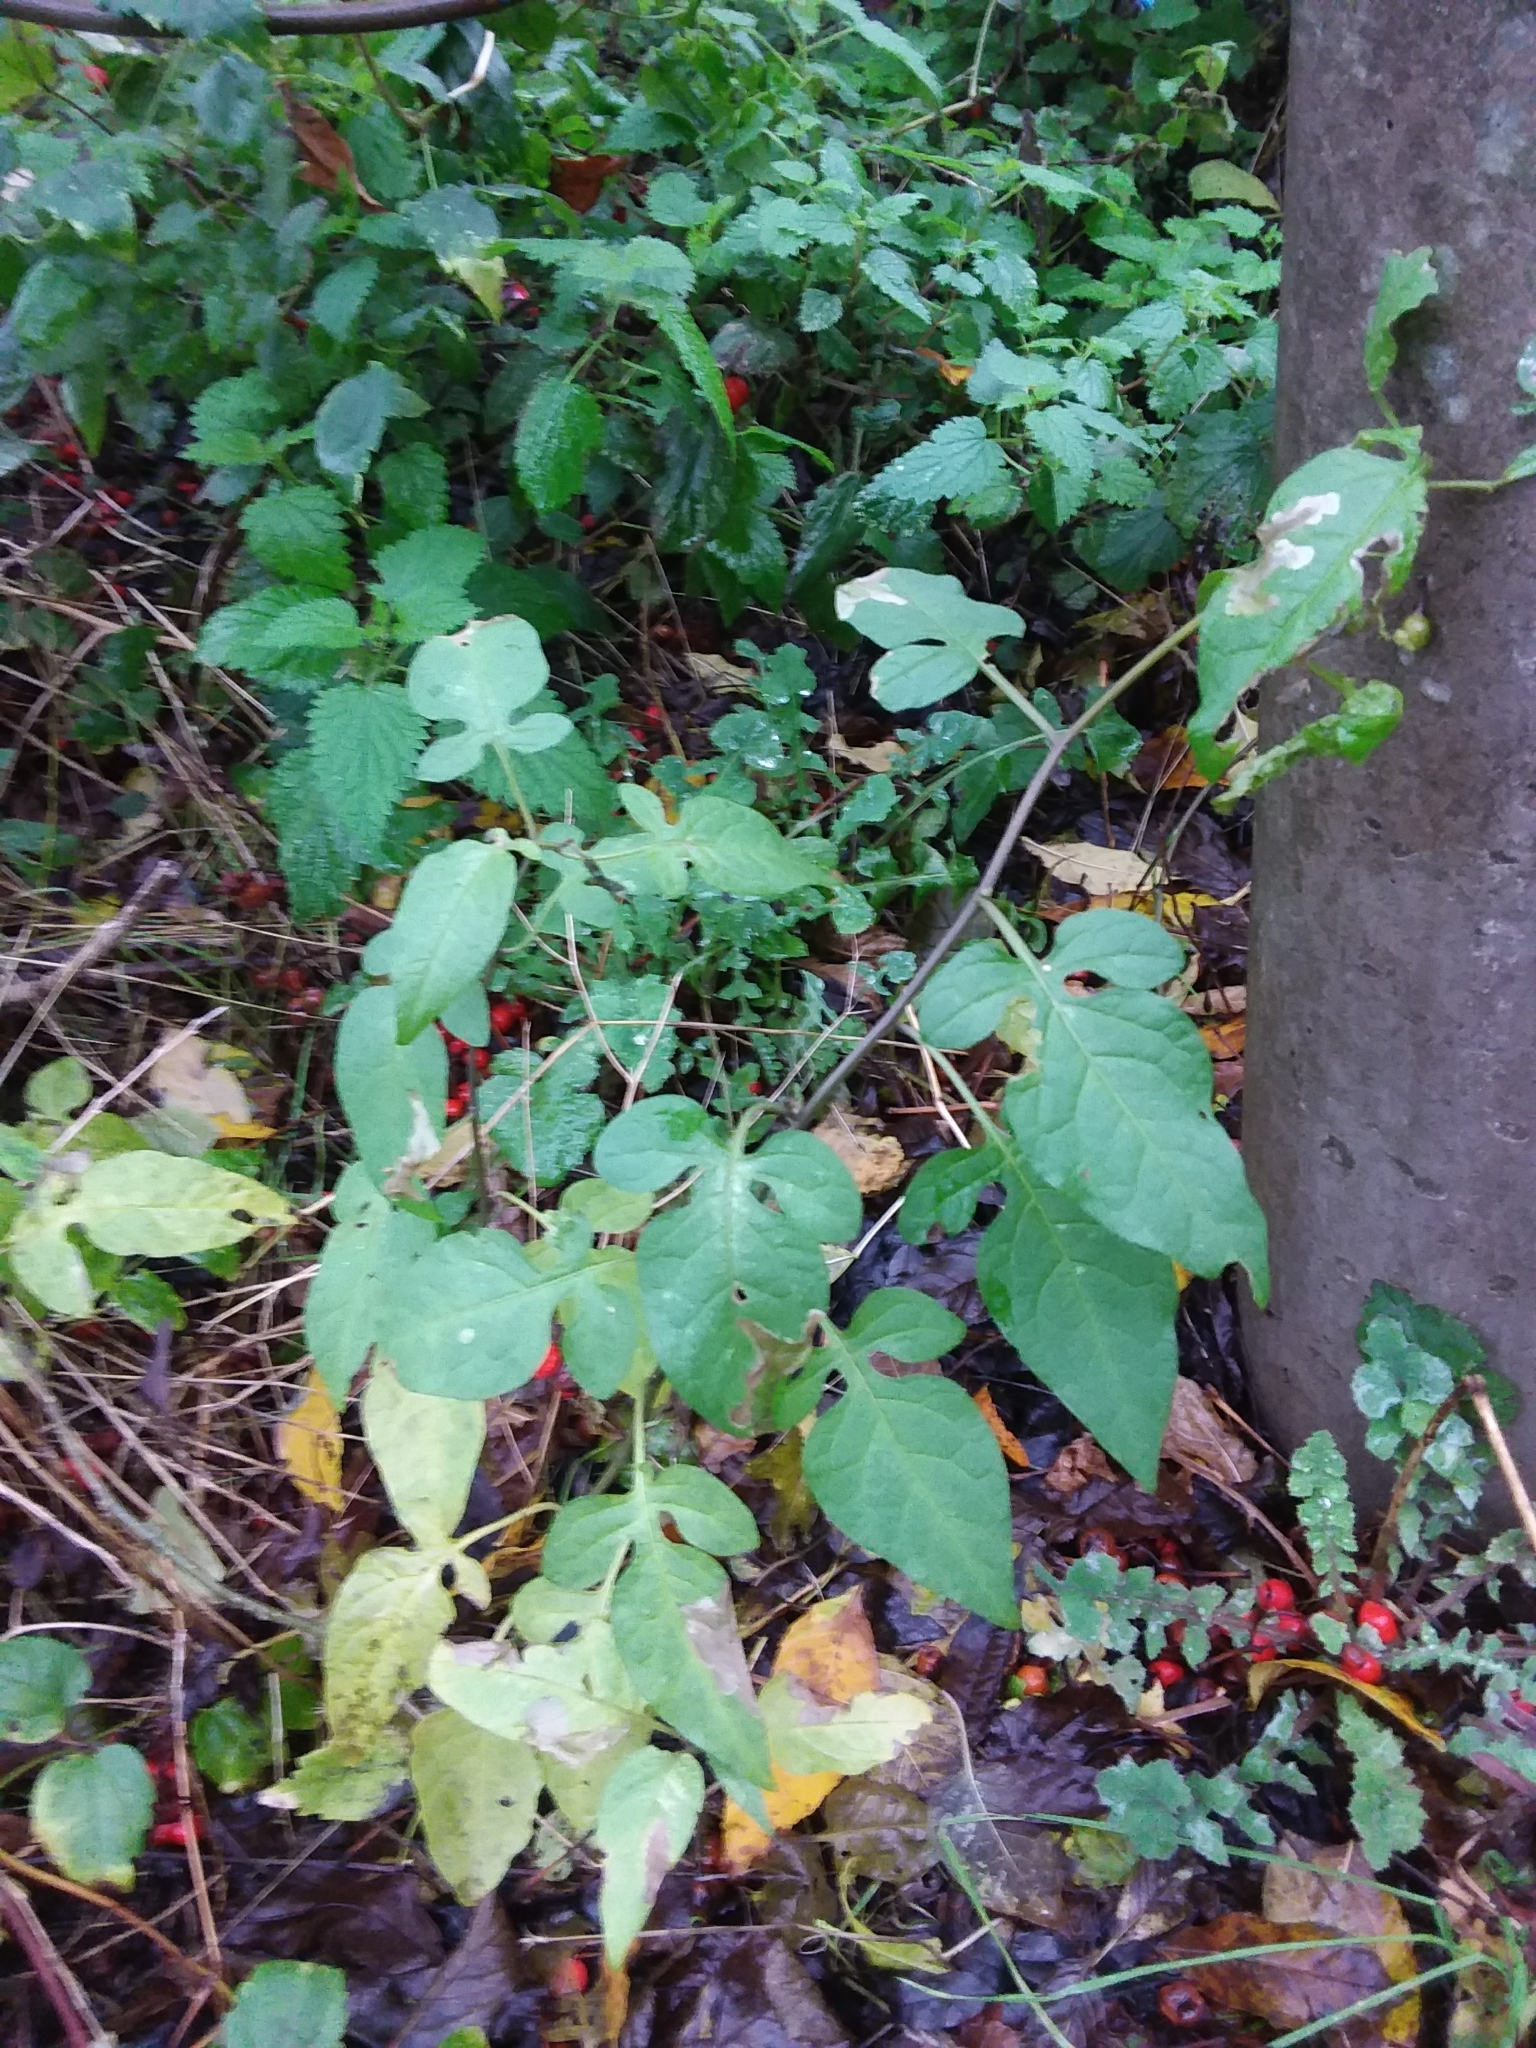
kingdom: Plantae
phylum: Tracheophyta
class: Magnoliopsida
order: Solanales
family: Solanaceae
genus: Solanum
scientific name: Solanum dulcamara
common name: Climbing nightshade
